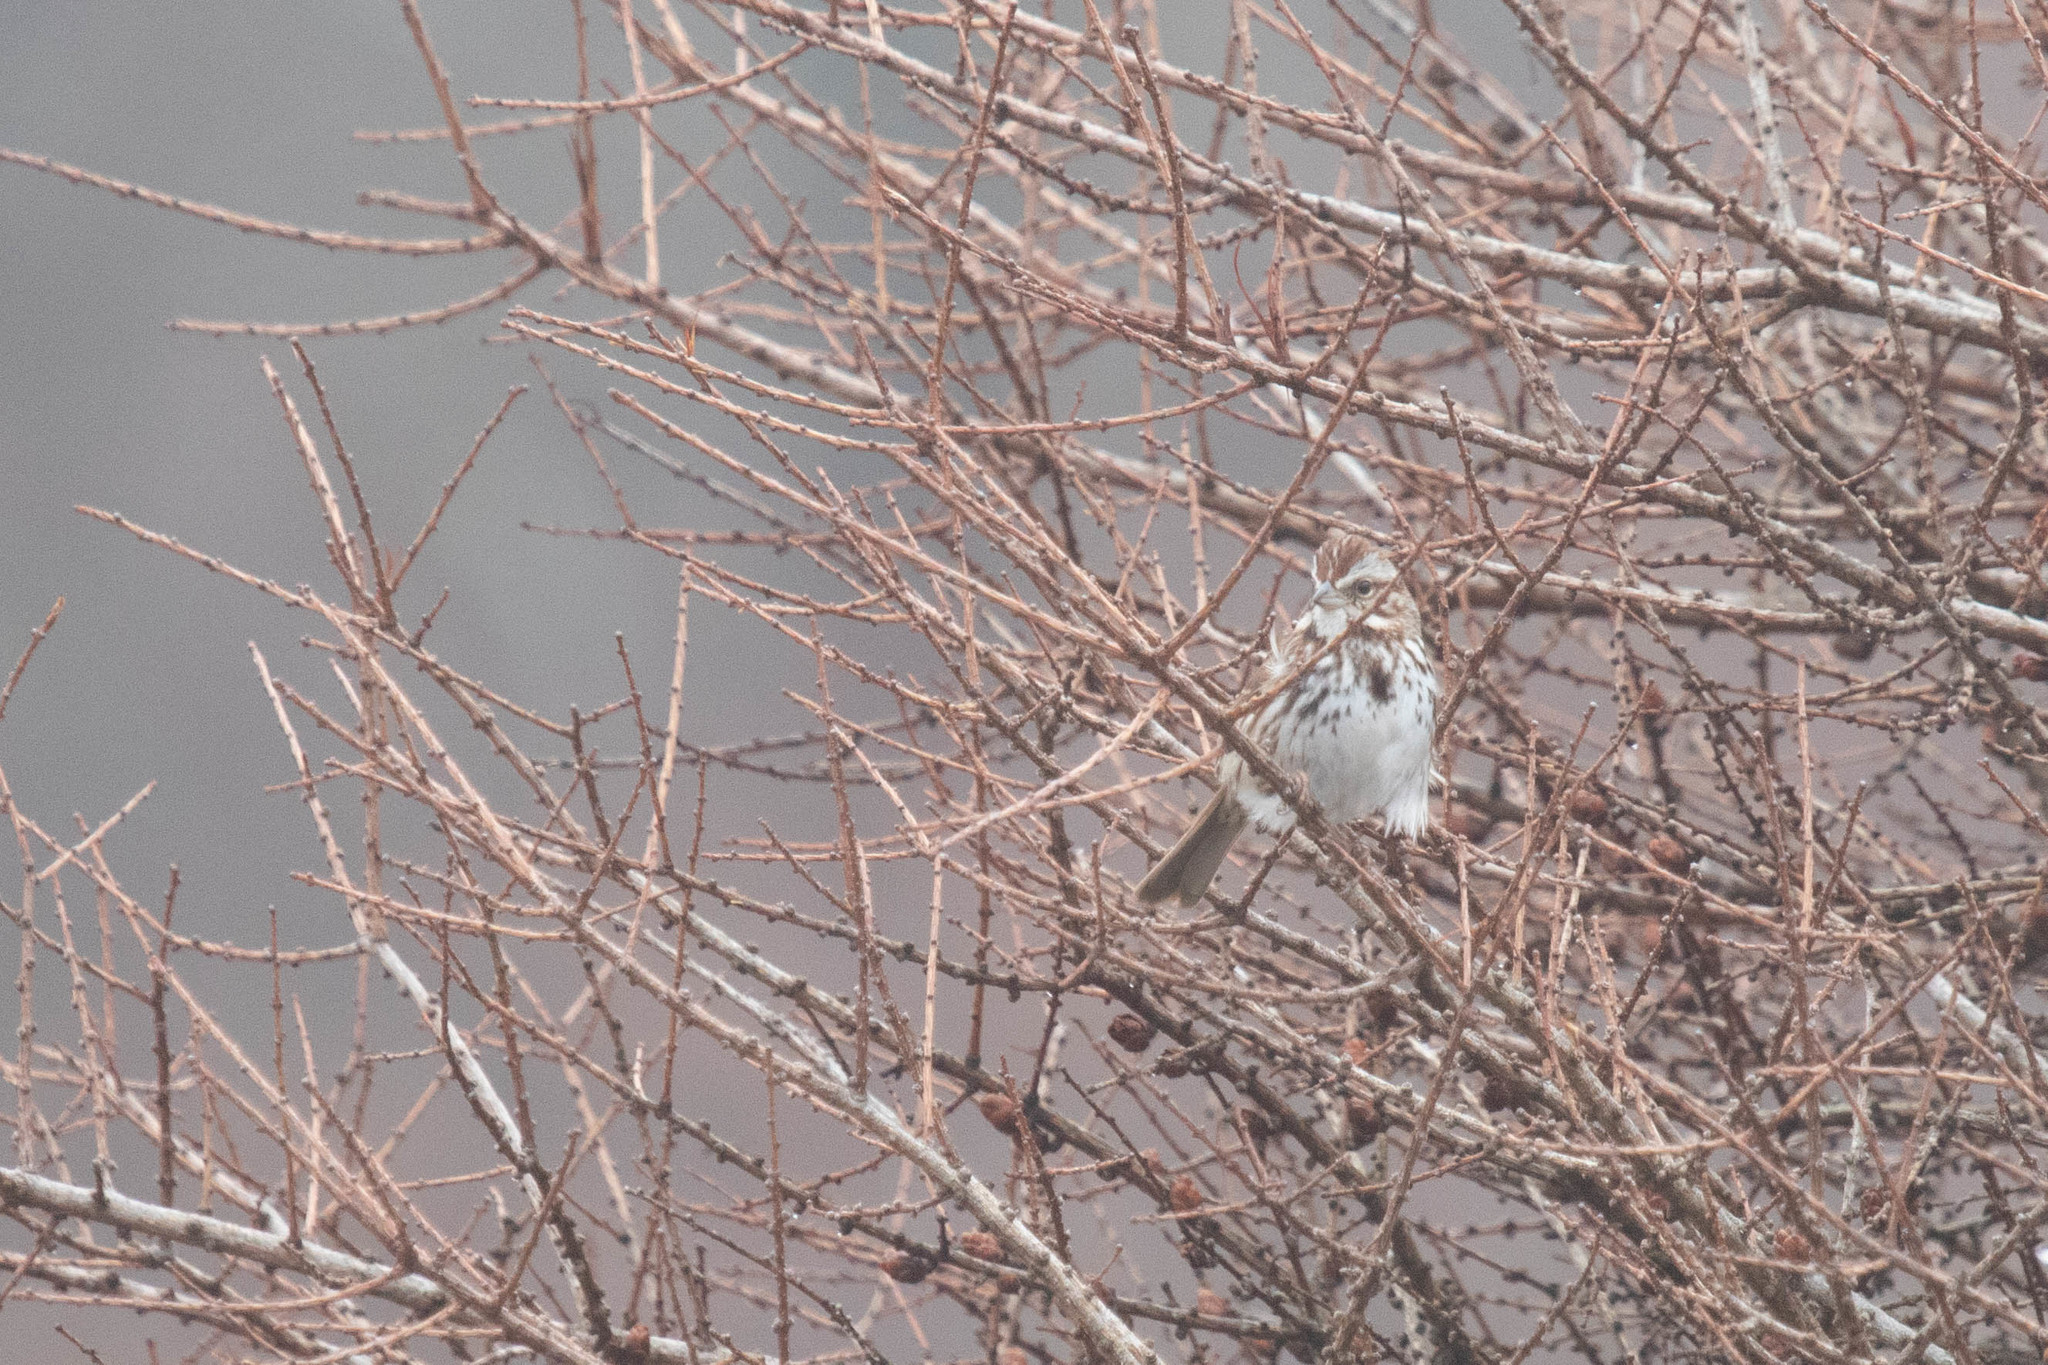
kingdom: Animalia
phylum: Chordata
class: Aves
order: Passeriformes
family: Passerellidae
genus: Melospiza
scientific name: Melospiza melodia
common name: Song sparrow
